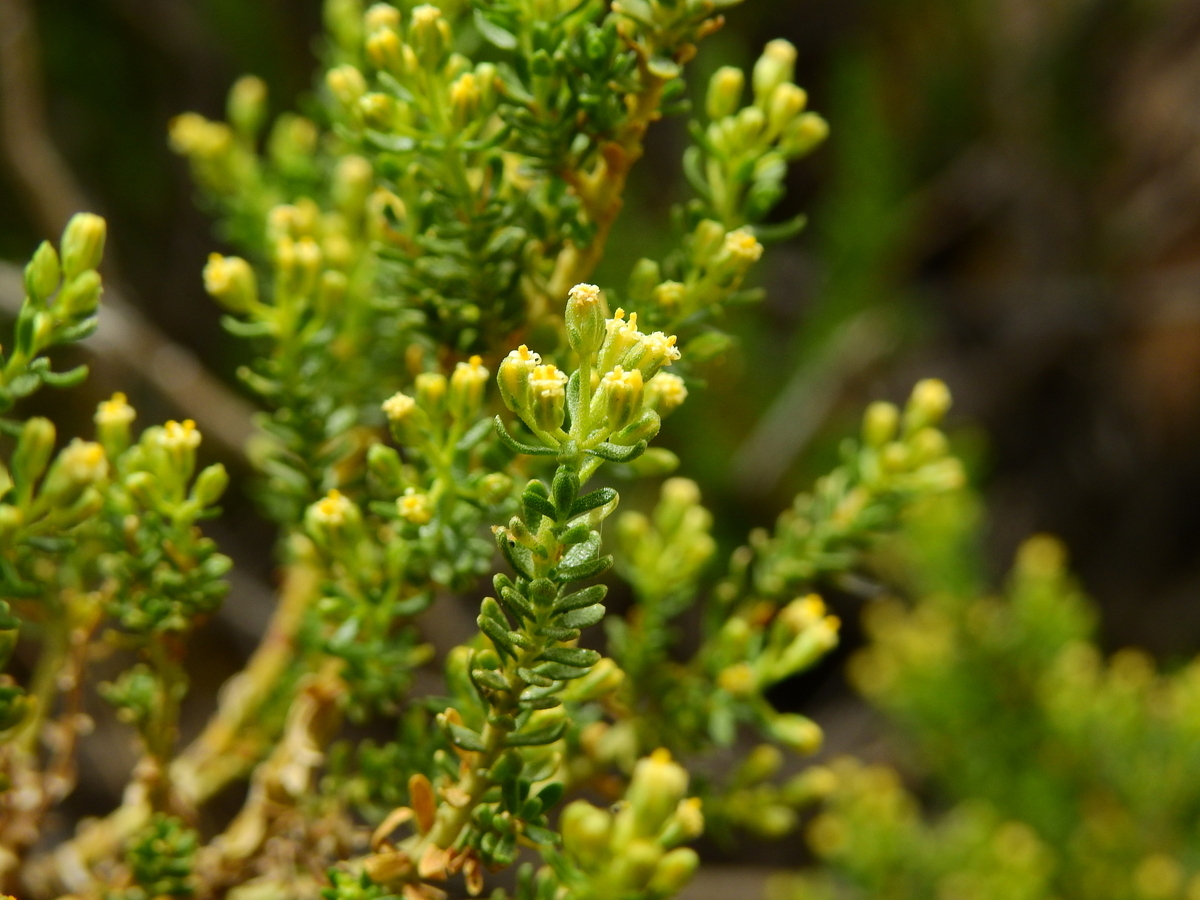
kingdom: Plantae
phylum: Tracheophyta
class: Magnoliopsida
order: Asterales
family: Asteraceae
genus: Baccharis
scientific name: Baccharis thymifolia
